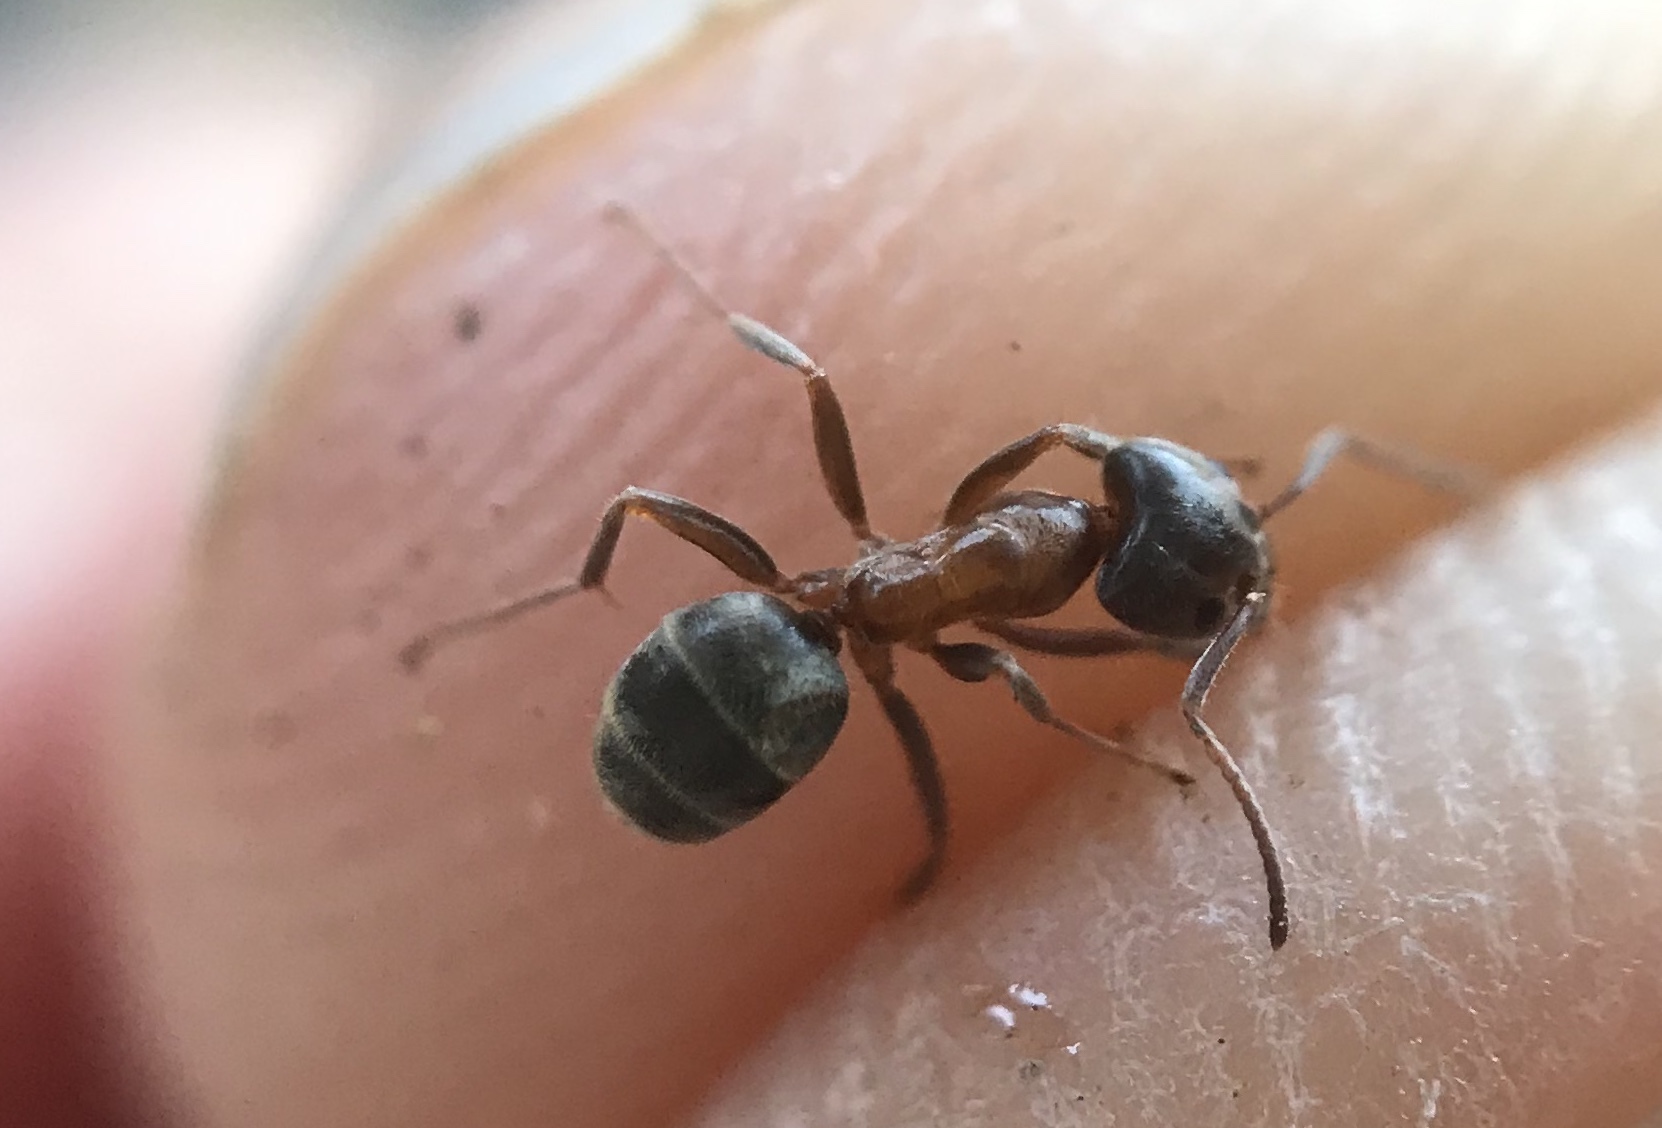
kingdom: Animalia
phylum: Arthropoda
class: Insecta
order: Hymenoptera
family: Formicidae
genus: Liometopum
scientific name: Liometopum occidentale
